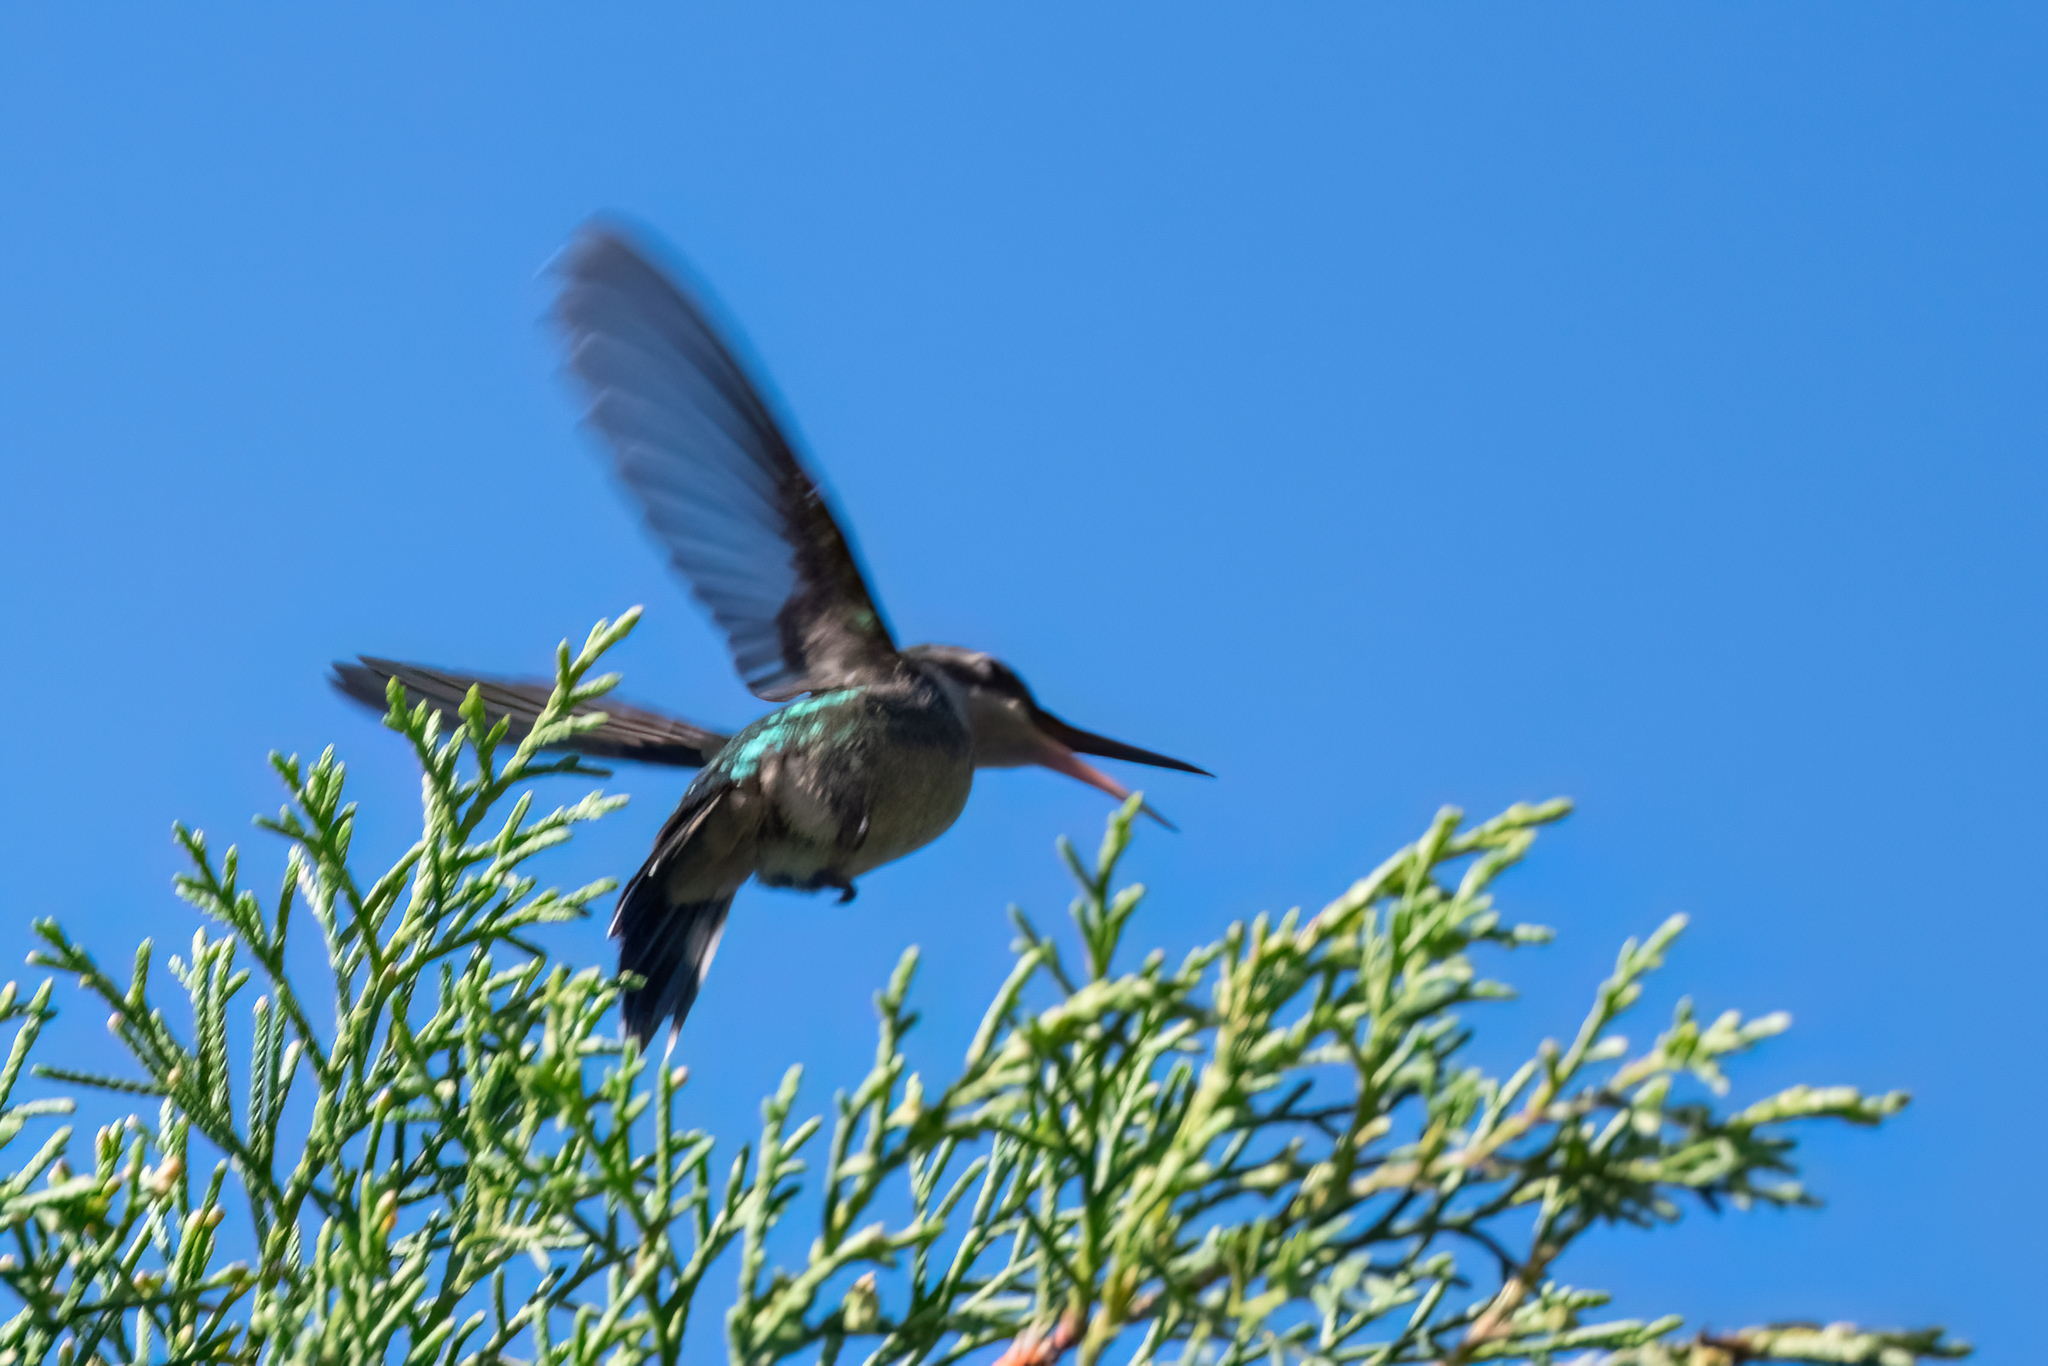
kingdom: Animalia
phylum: Chordata
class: Aves
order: Apodiformes
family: Trochilidae
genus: Cynanthus
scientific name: Cynanthus canivetii
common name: Canivet's emerald
